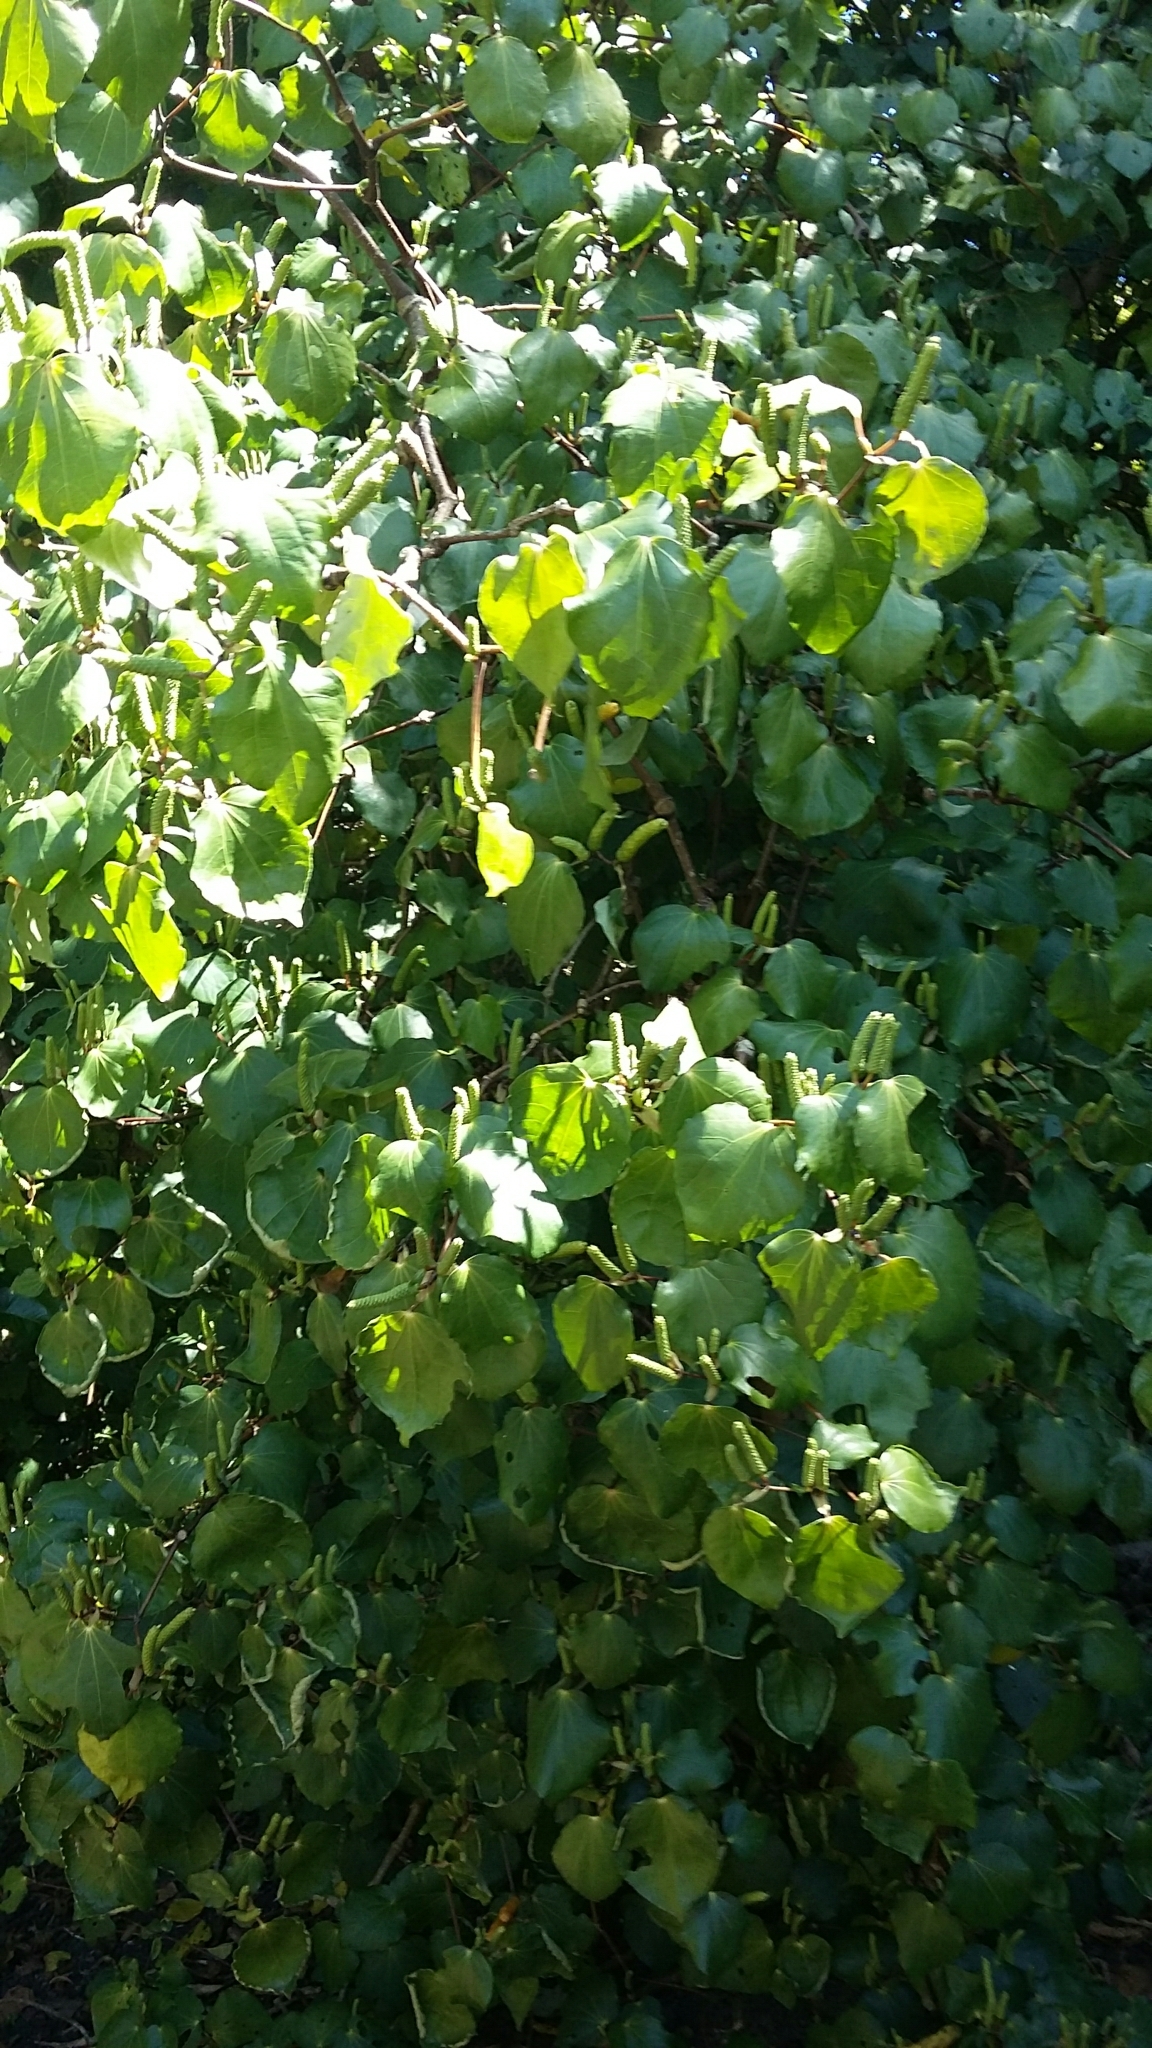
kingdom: Plantae
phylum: Tracheophyta
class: Magnoliopsida
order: Piperales
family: Piperaceae
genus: Macropiper
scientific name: Macropiper excelsum
